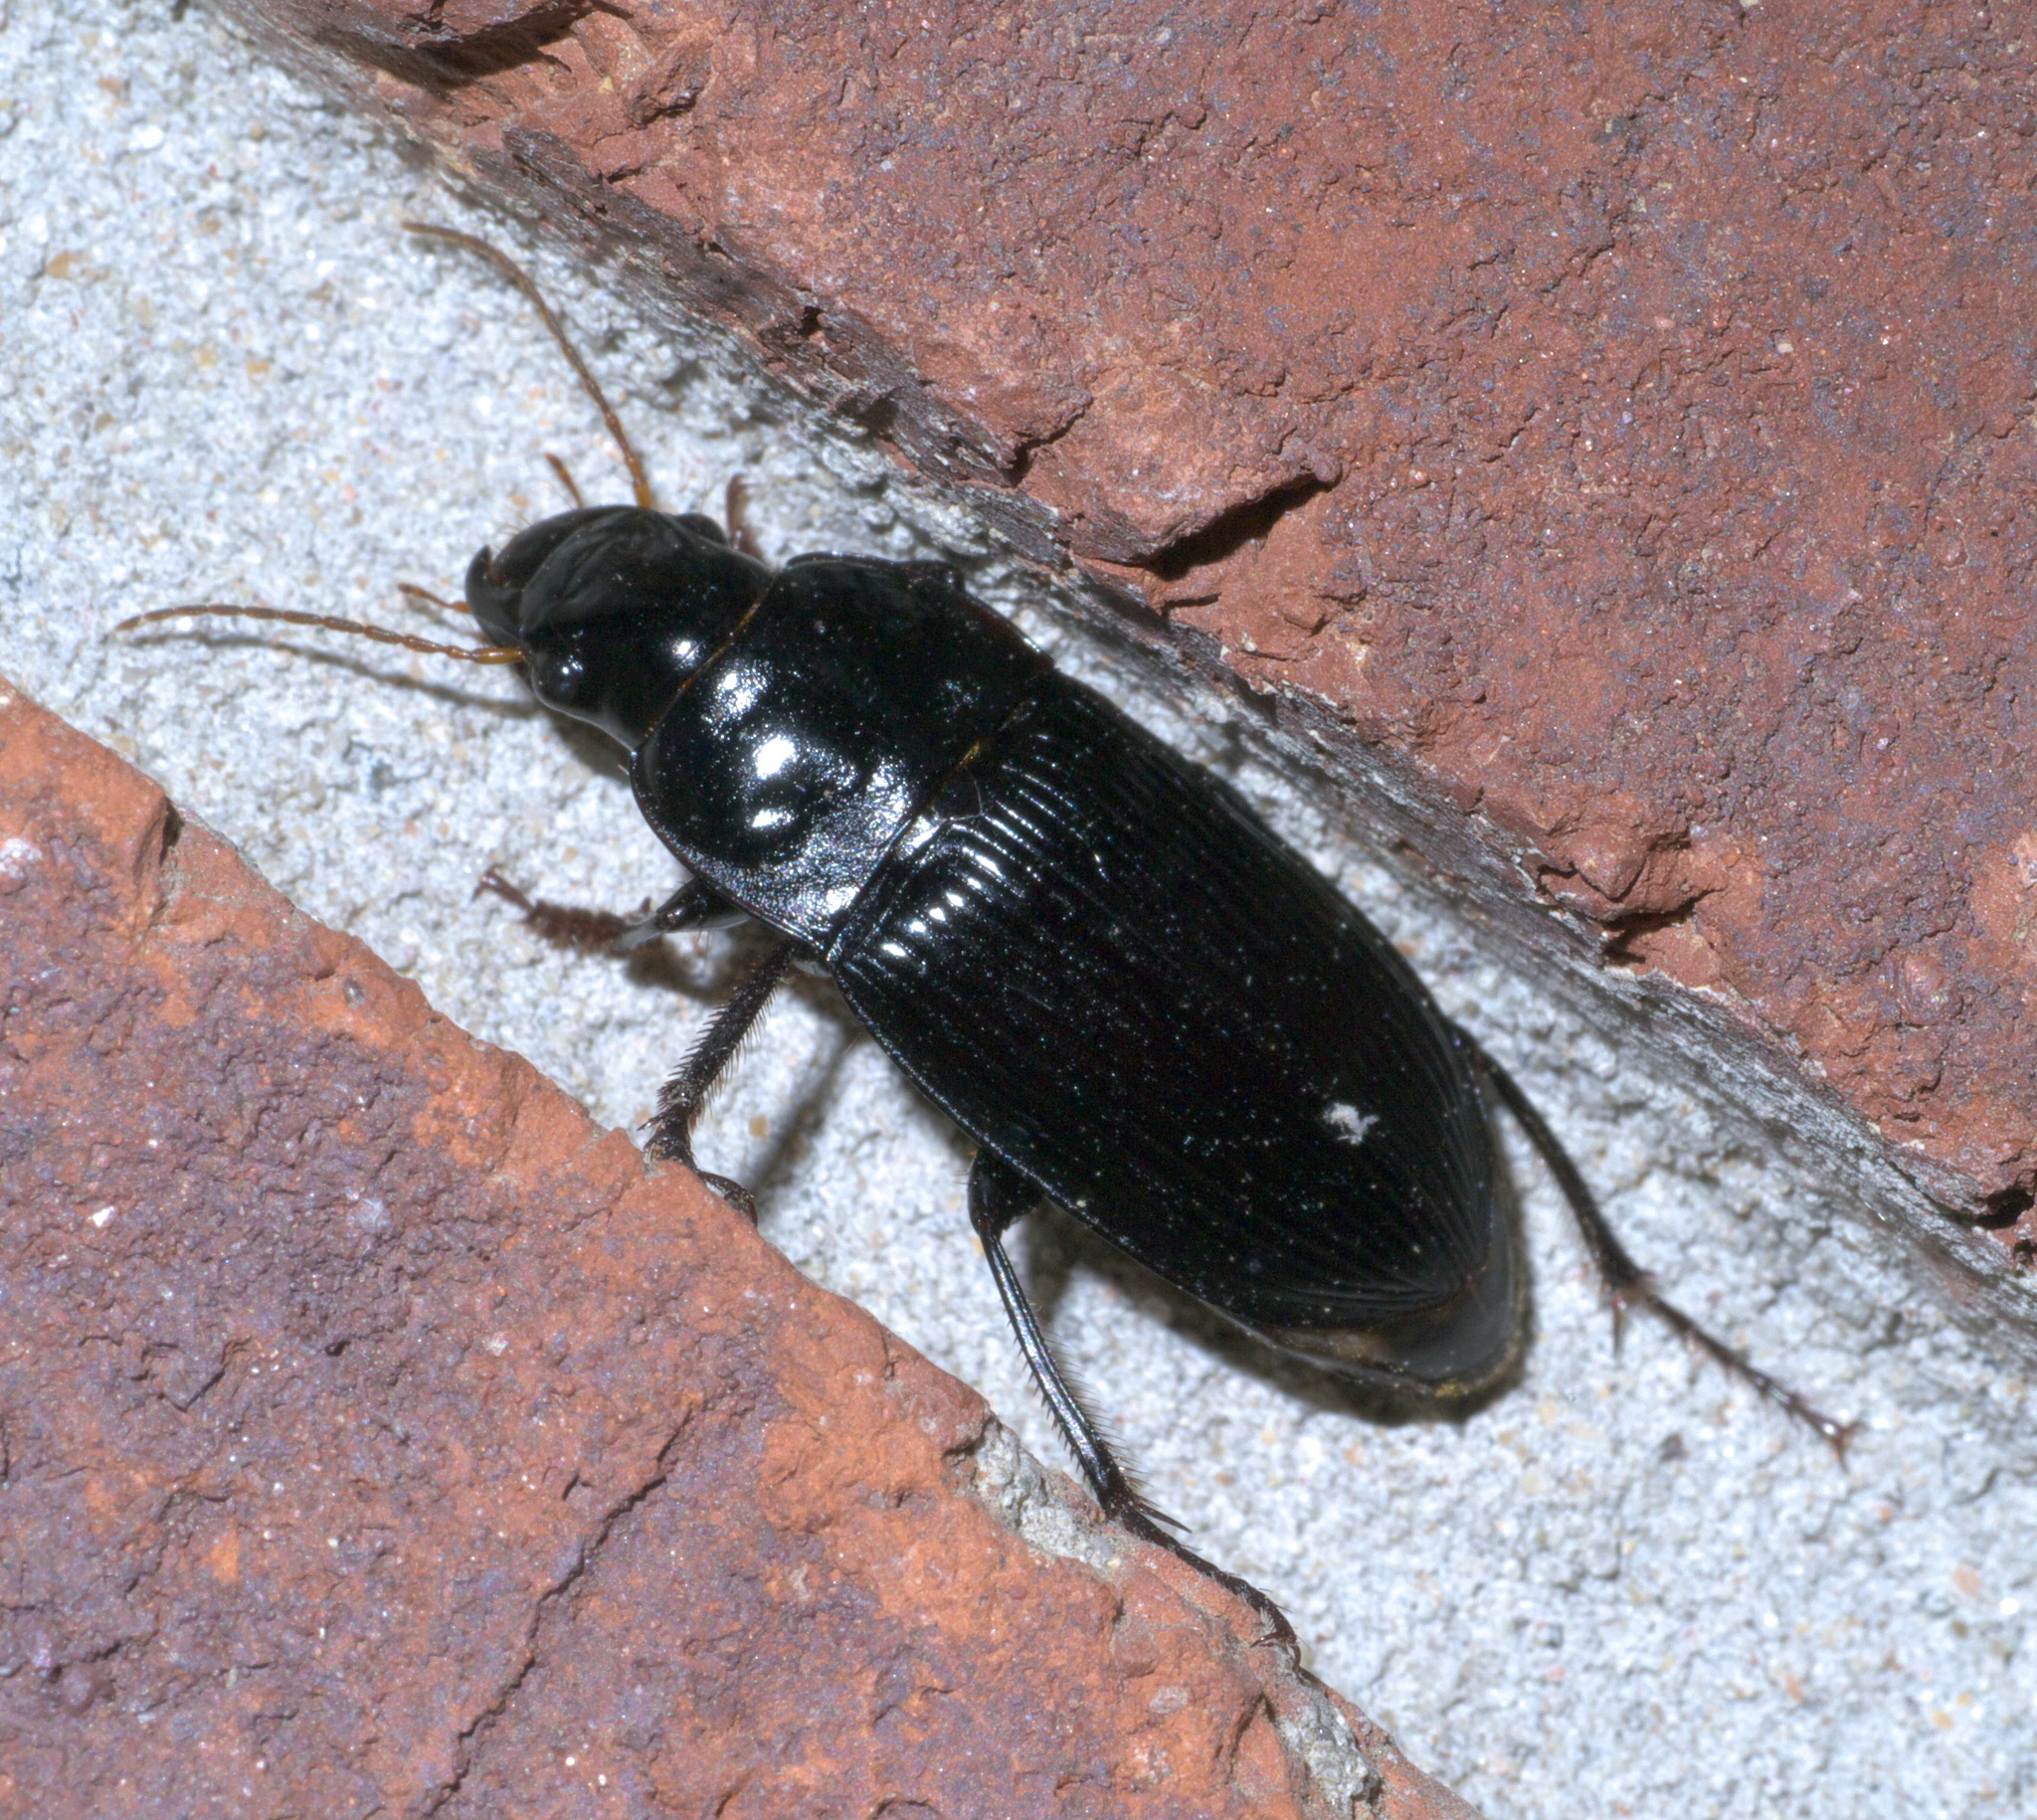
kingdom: Animalia
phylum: Arthropoda
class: Insecta
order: Coleoptera
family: Carabidae
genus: Harpalus
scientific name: Harpalus caliginosus
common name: Murky ground beetle
